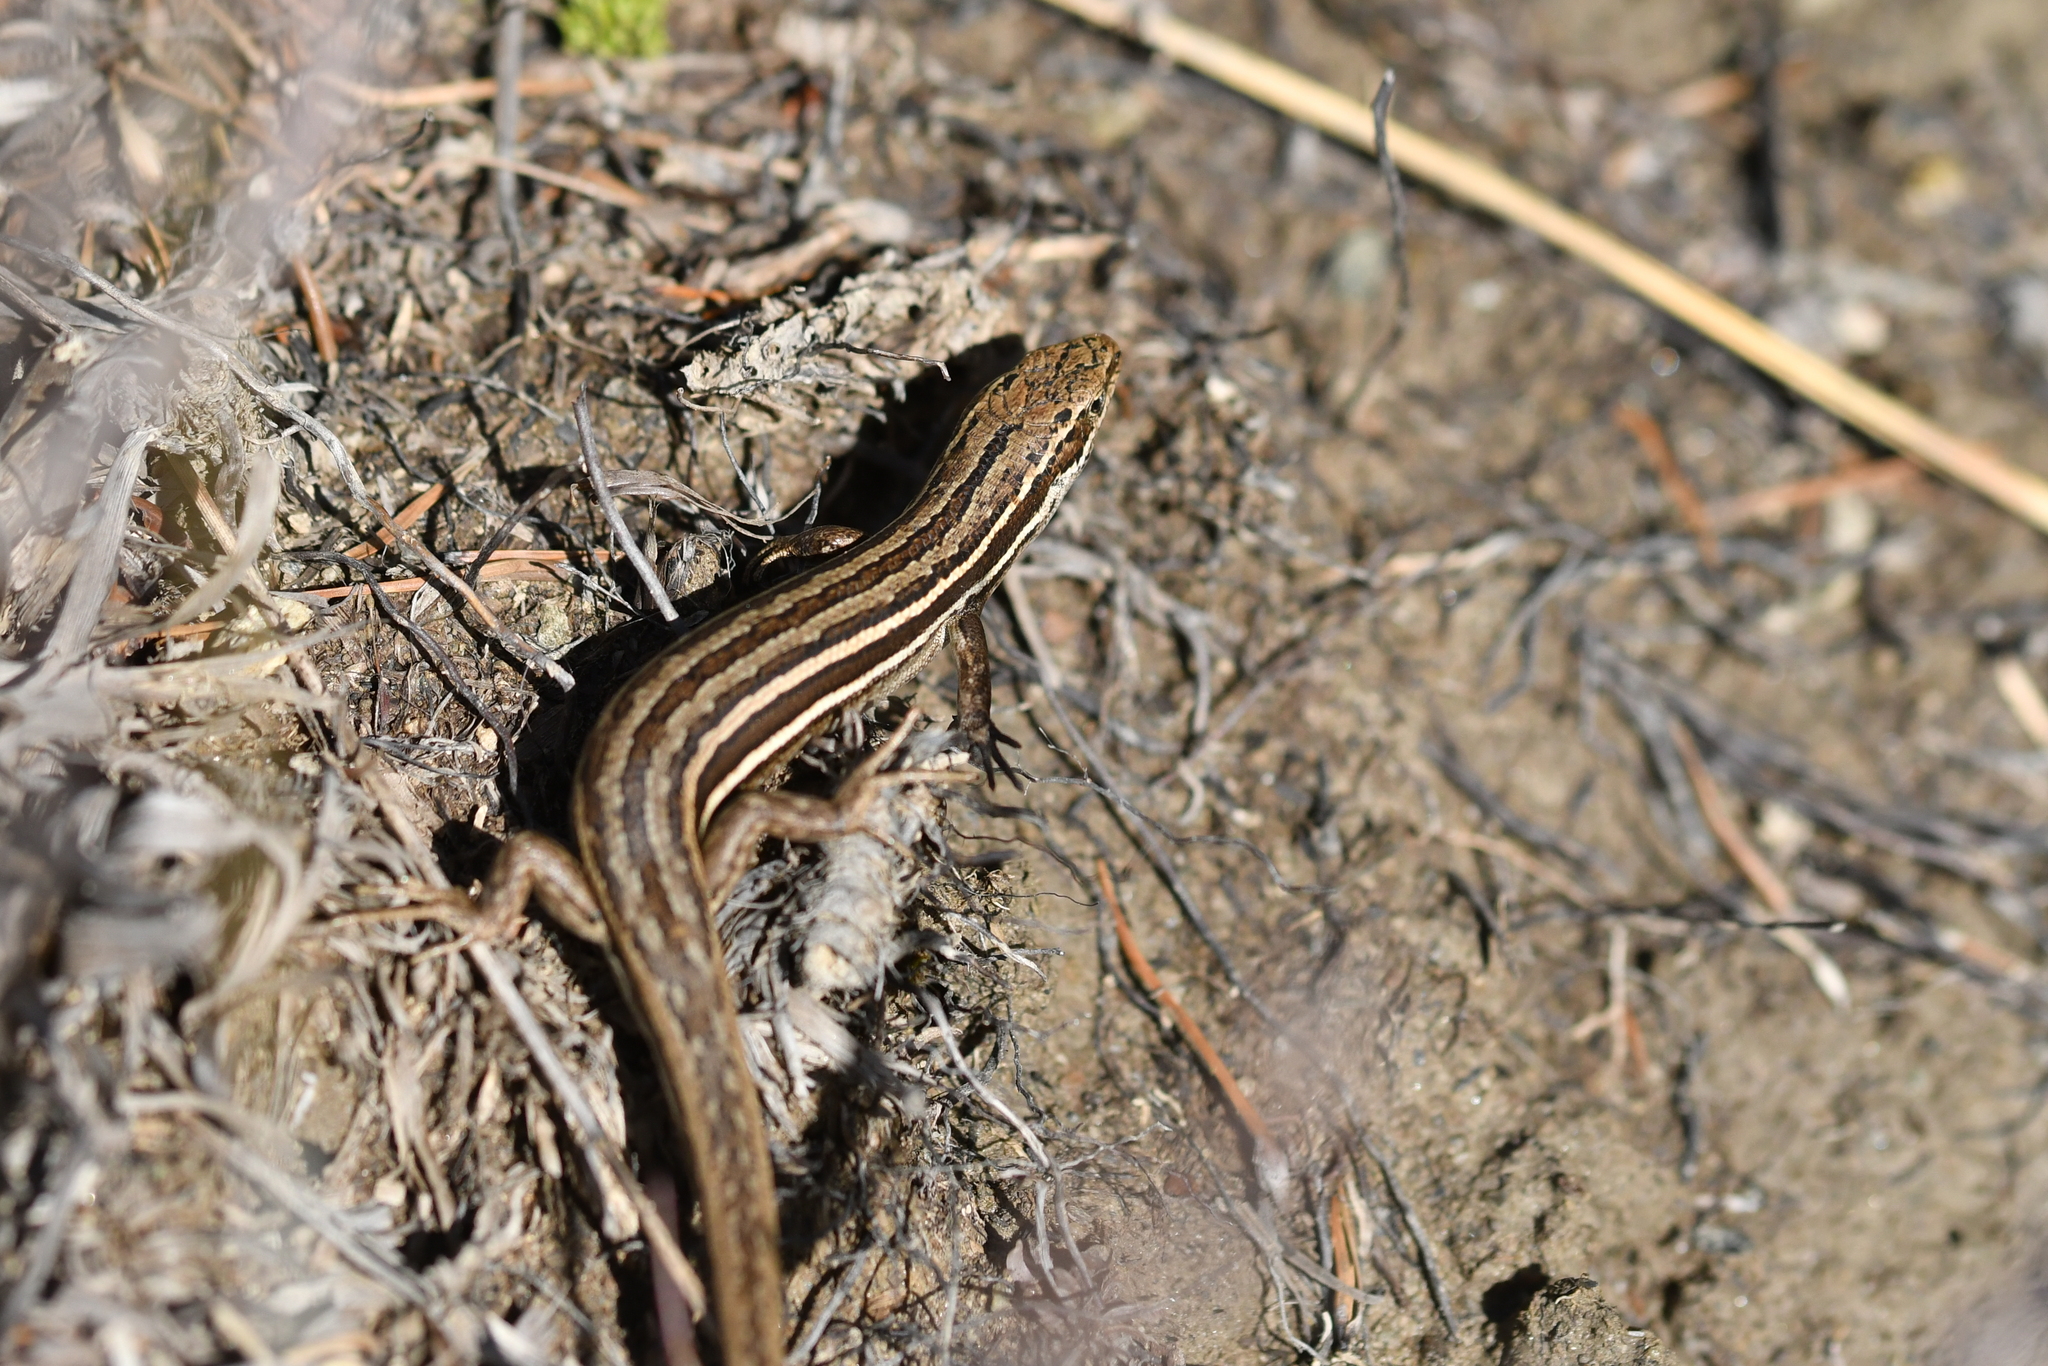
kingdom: Animalia
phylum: Chordata
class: Squamata
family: Scincidae
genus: Oligosoma
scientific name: Oligosoma maccanni
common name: Mccann’s skink
